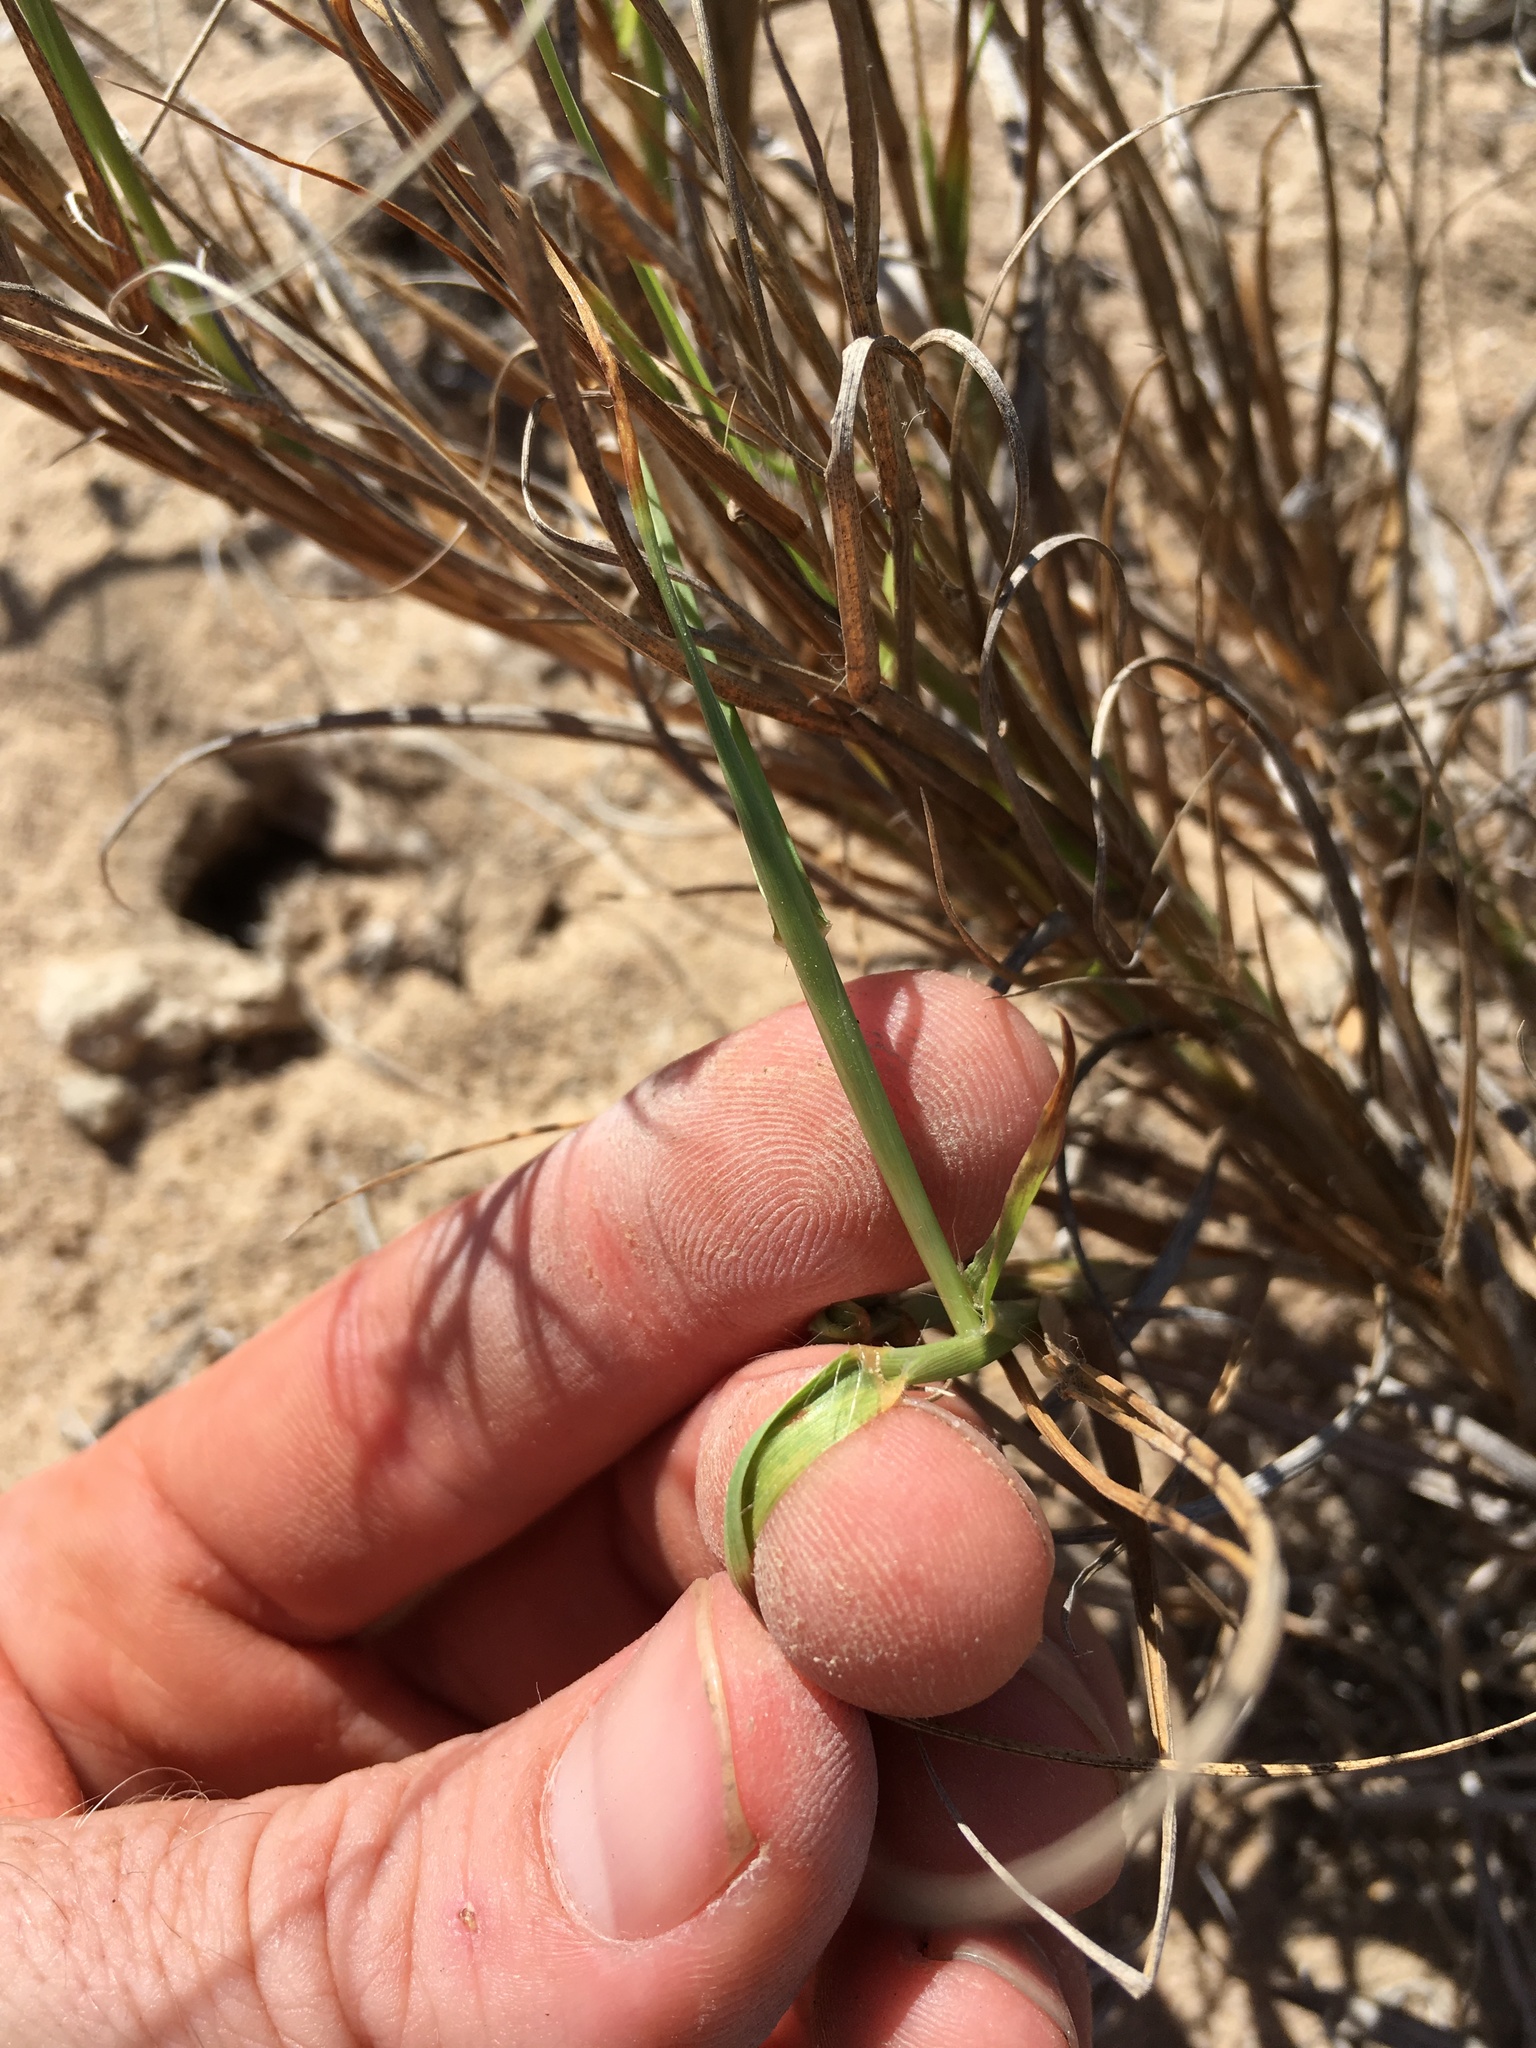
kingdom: Plantae
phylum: Tracheophyta
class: Liliopsida
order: Poales
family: Poaceae
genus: Cenchrus
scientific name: Cenchrus ciliaris
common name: Buffelgrass
